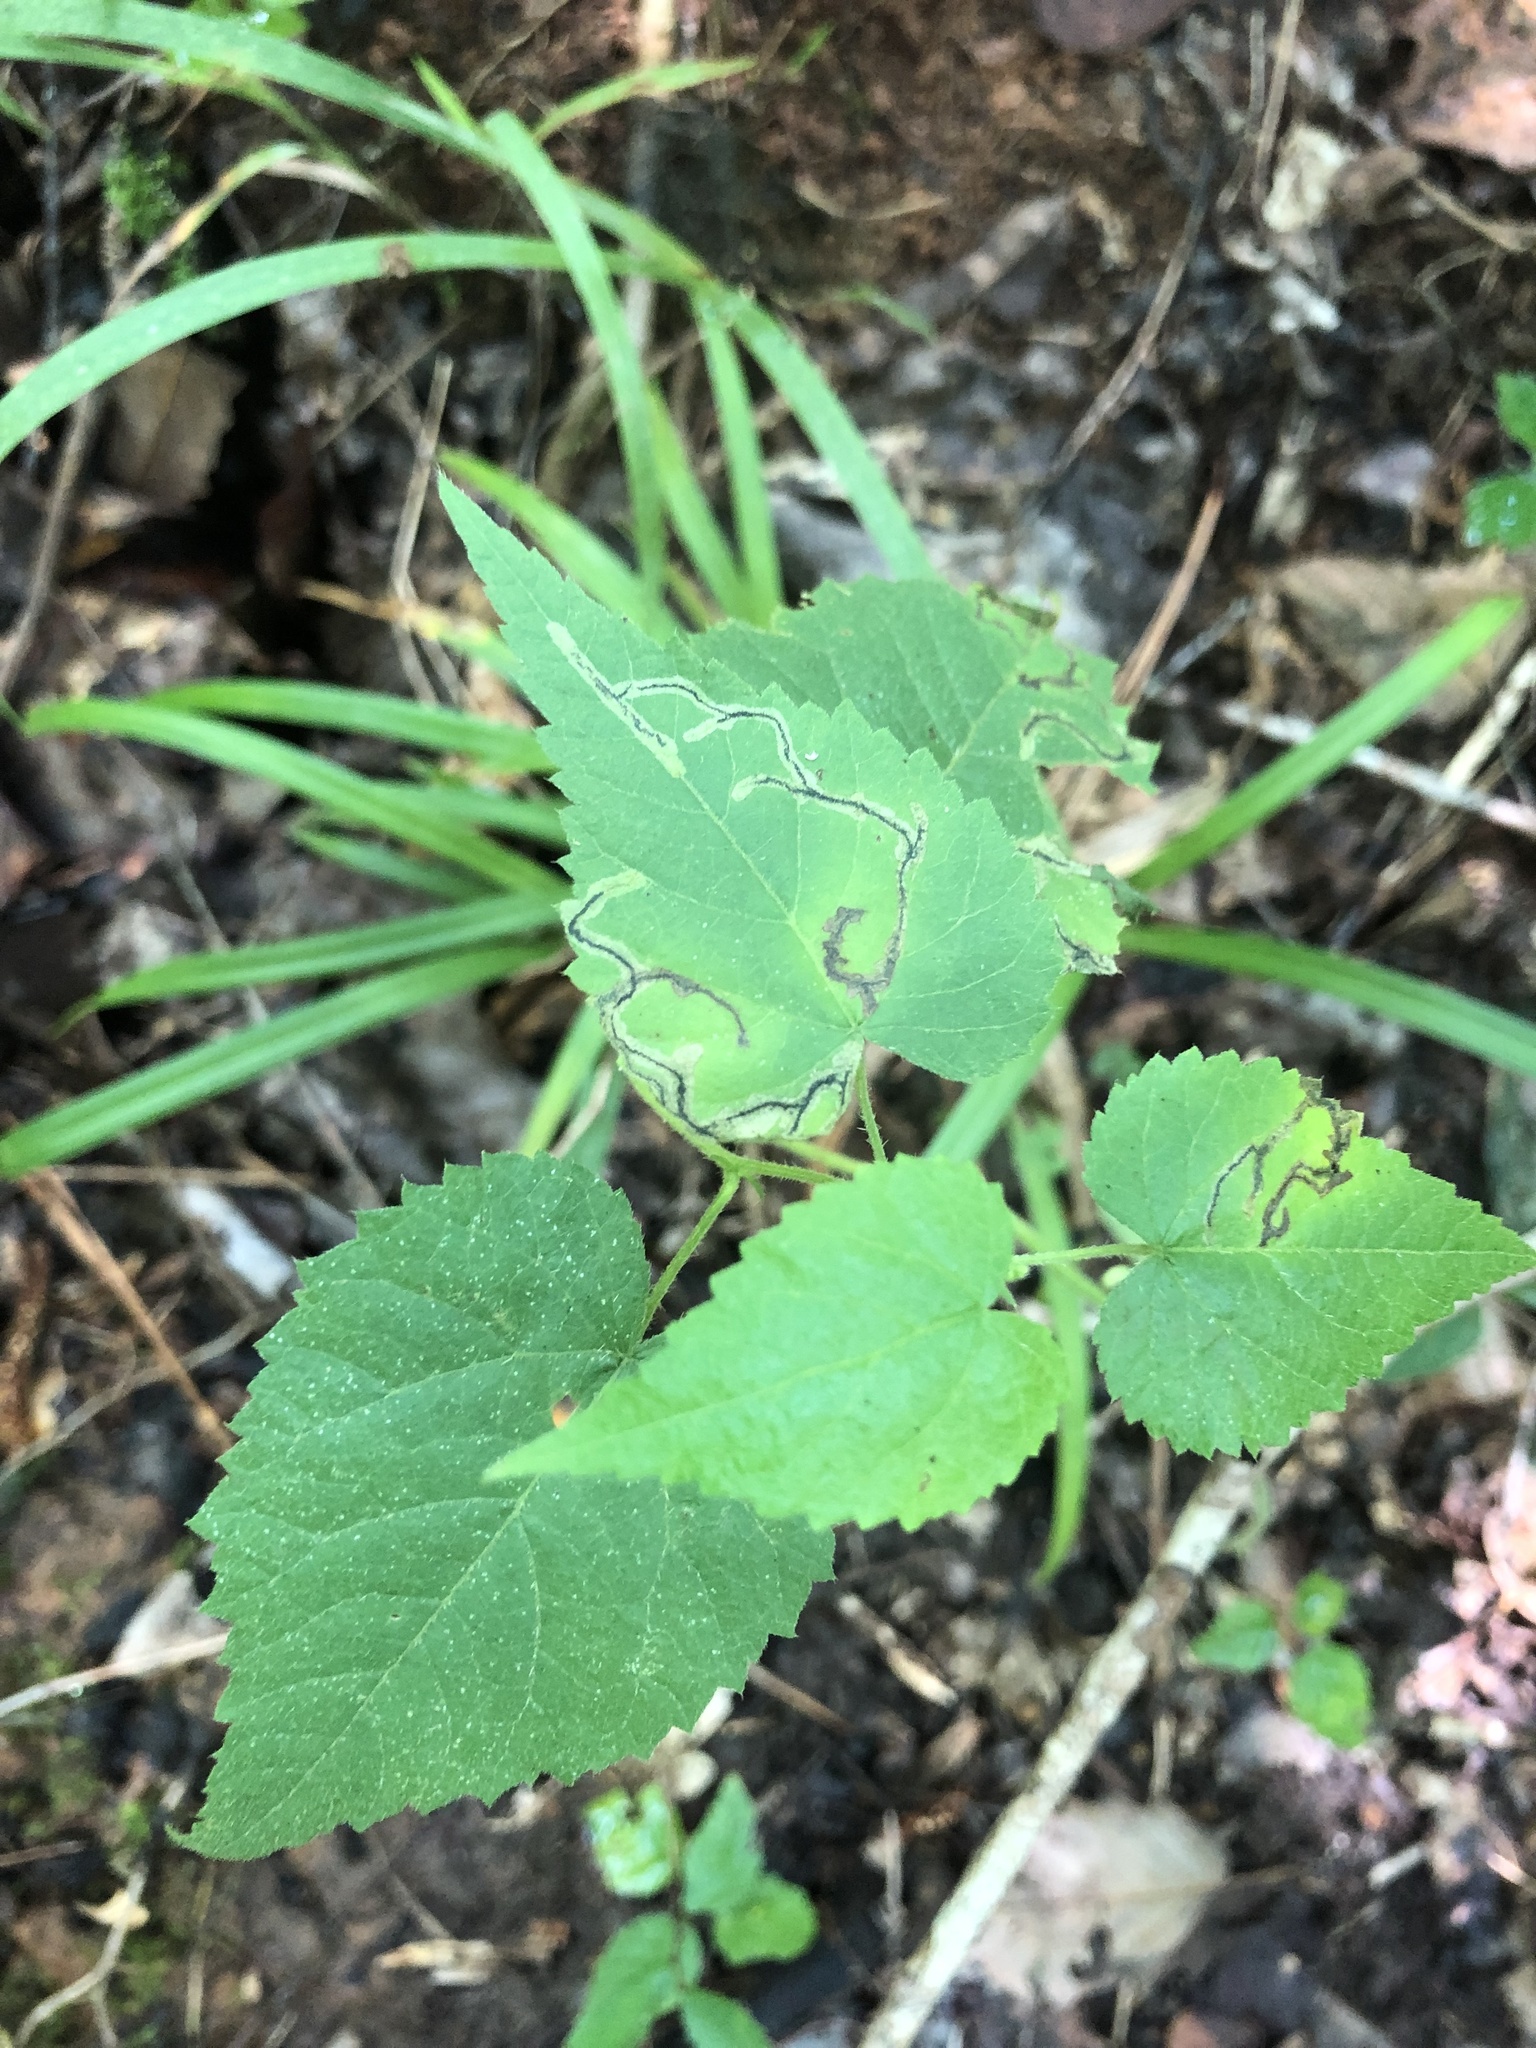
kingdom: Plantae
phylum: Tracheophyta
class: Magnoliopsida
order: Malpighiales
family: Euphorbiaceae
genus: Tragia
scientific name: Tragia cordata
